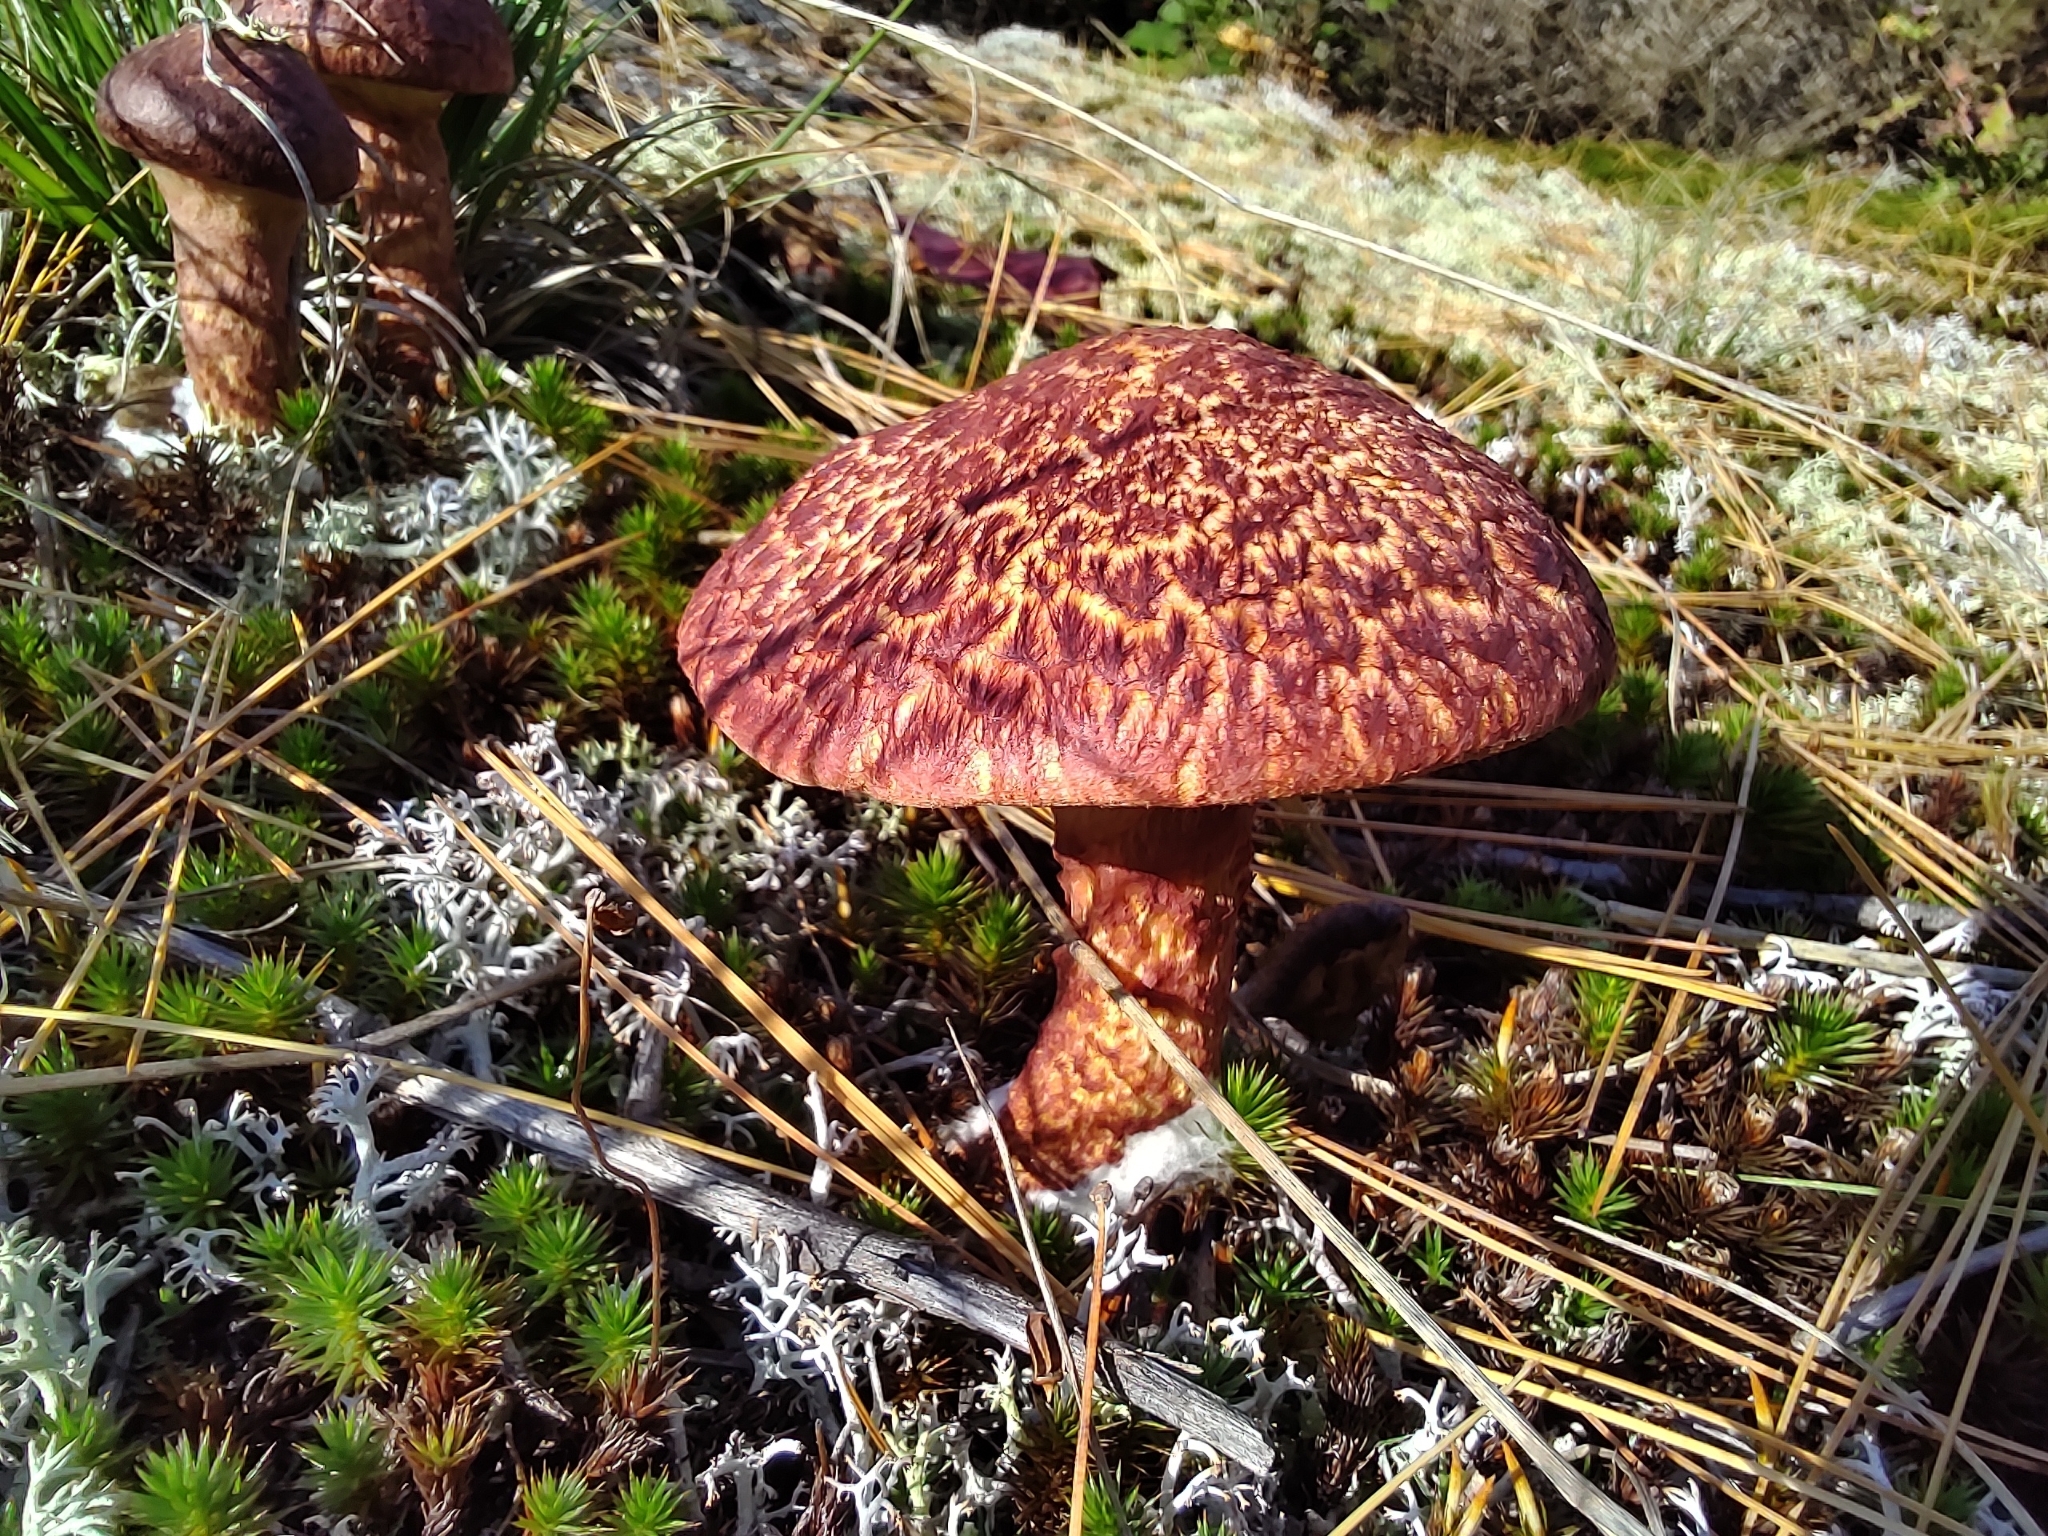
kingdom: Fungi
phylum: Basidiomycota
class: Agaricomycetes
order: Boletales
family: Suillaceae
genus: Suillus
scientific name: Suillus spraguei
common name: Painted suillus
